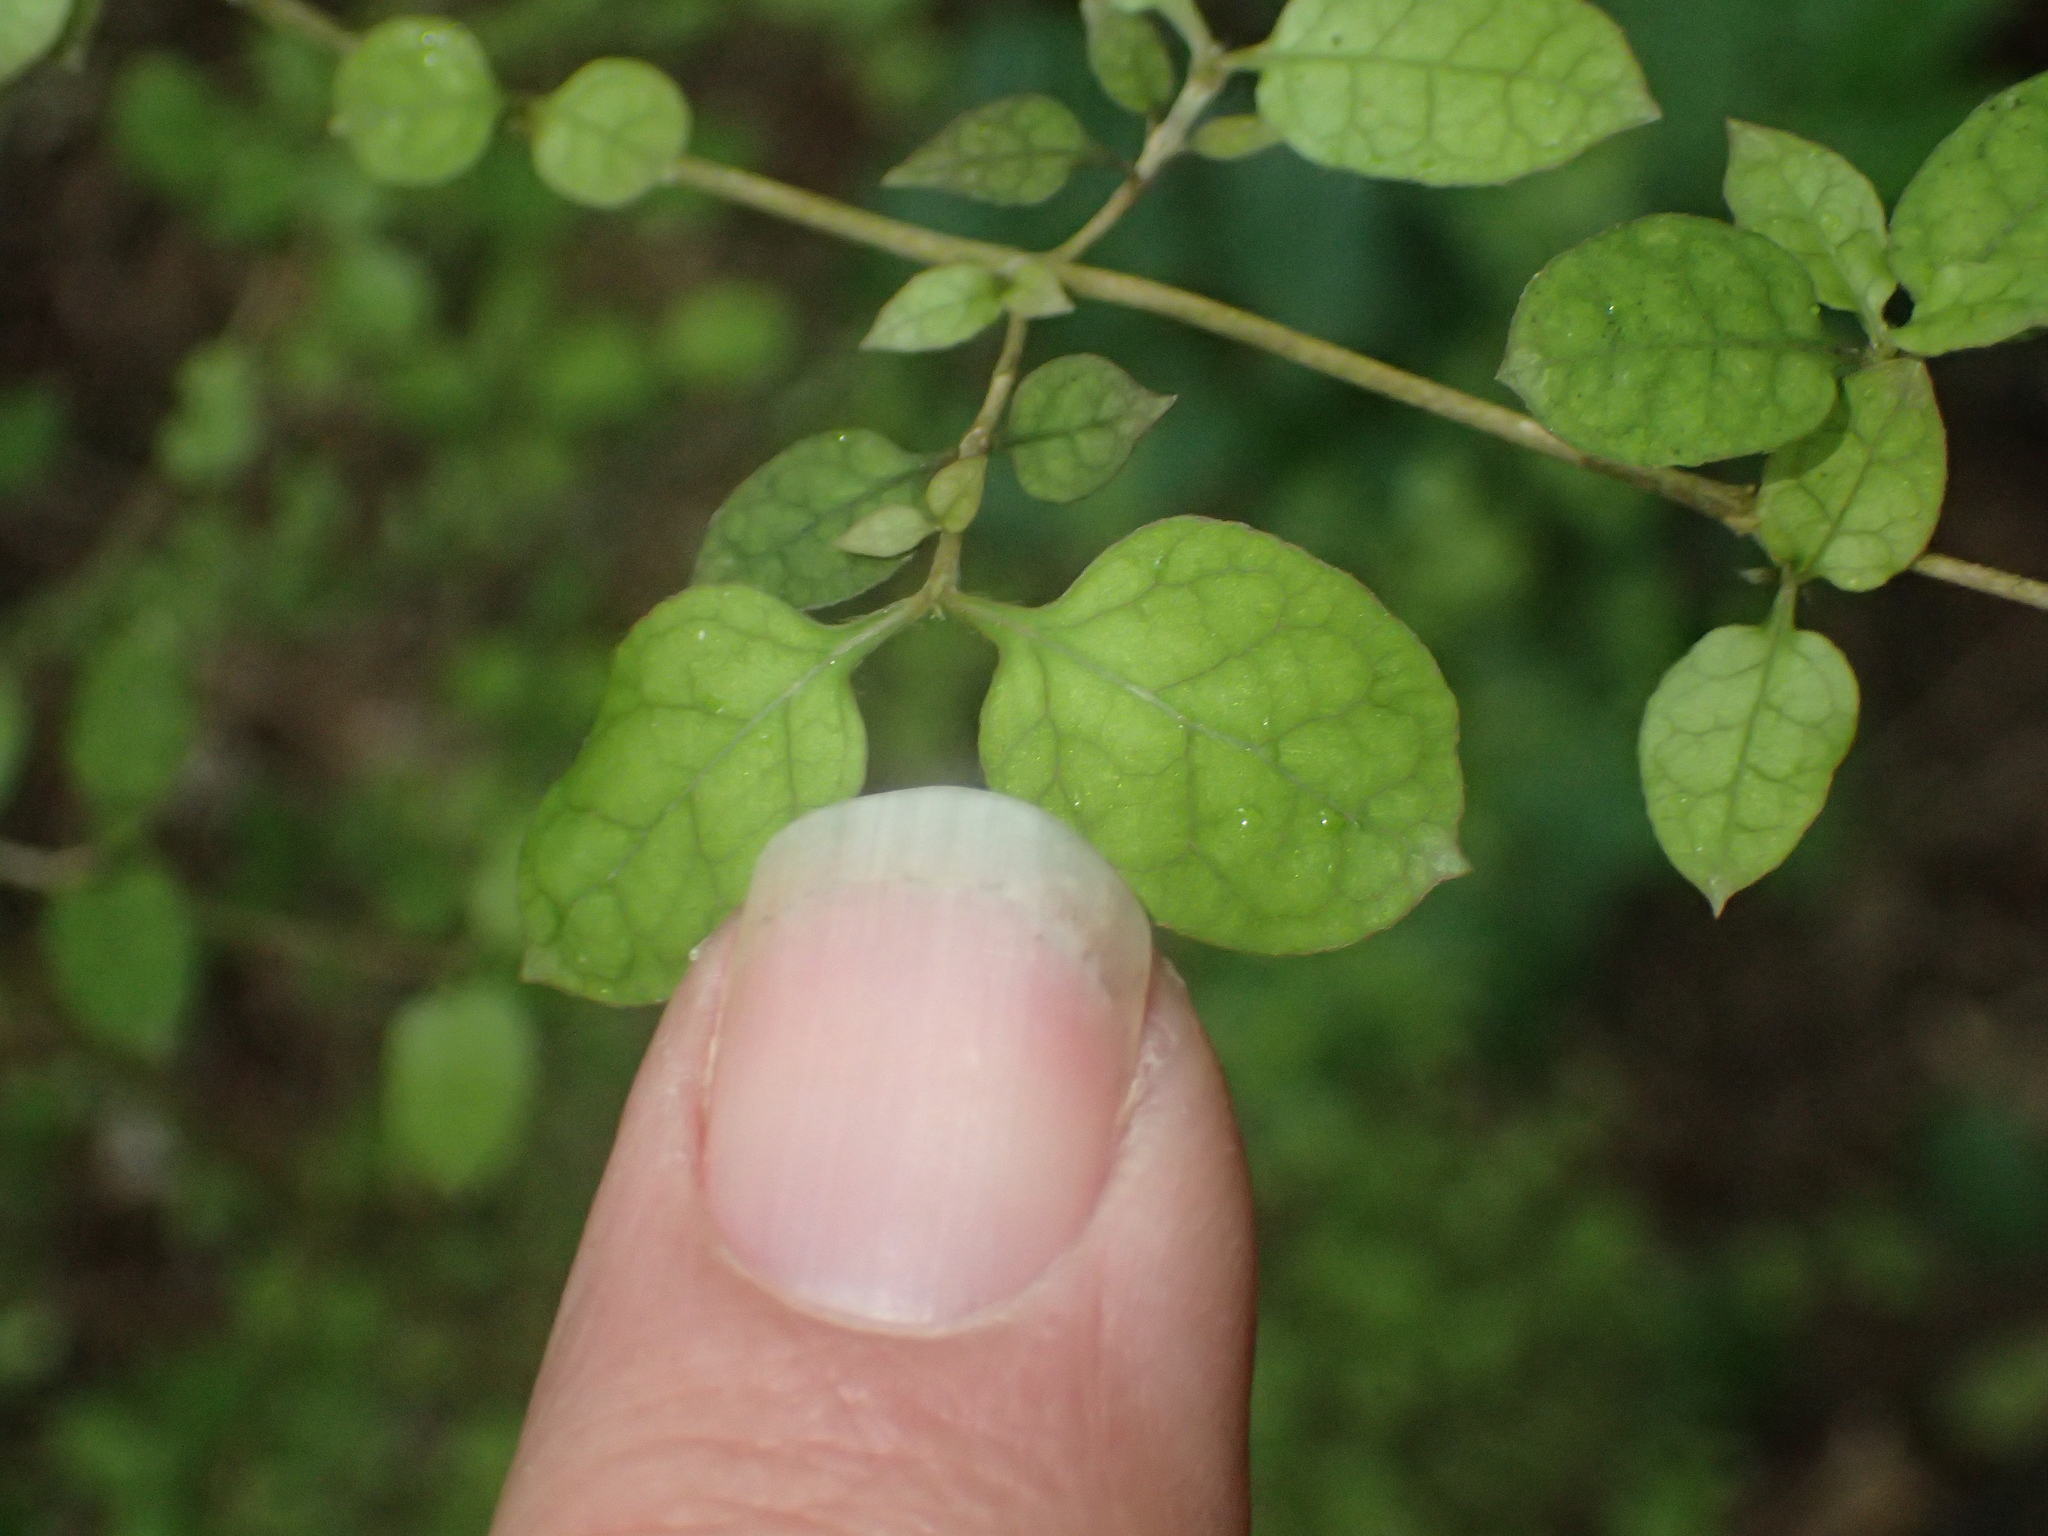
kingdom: Plantae
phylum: Tracheophyta
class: Magnoliopsida
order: Gentianales
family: Rubiaceae
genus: Coprosma
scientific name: Coprosma areolata
